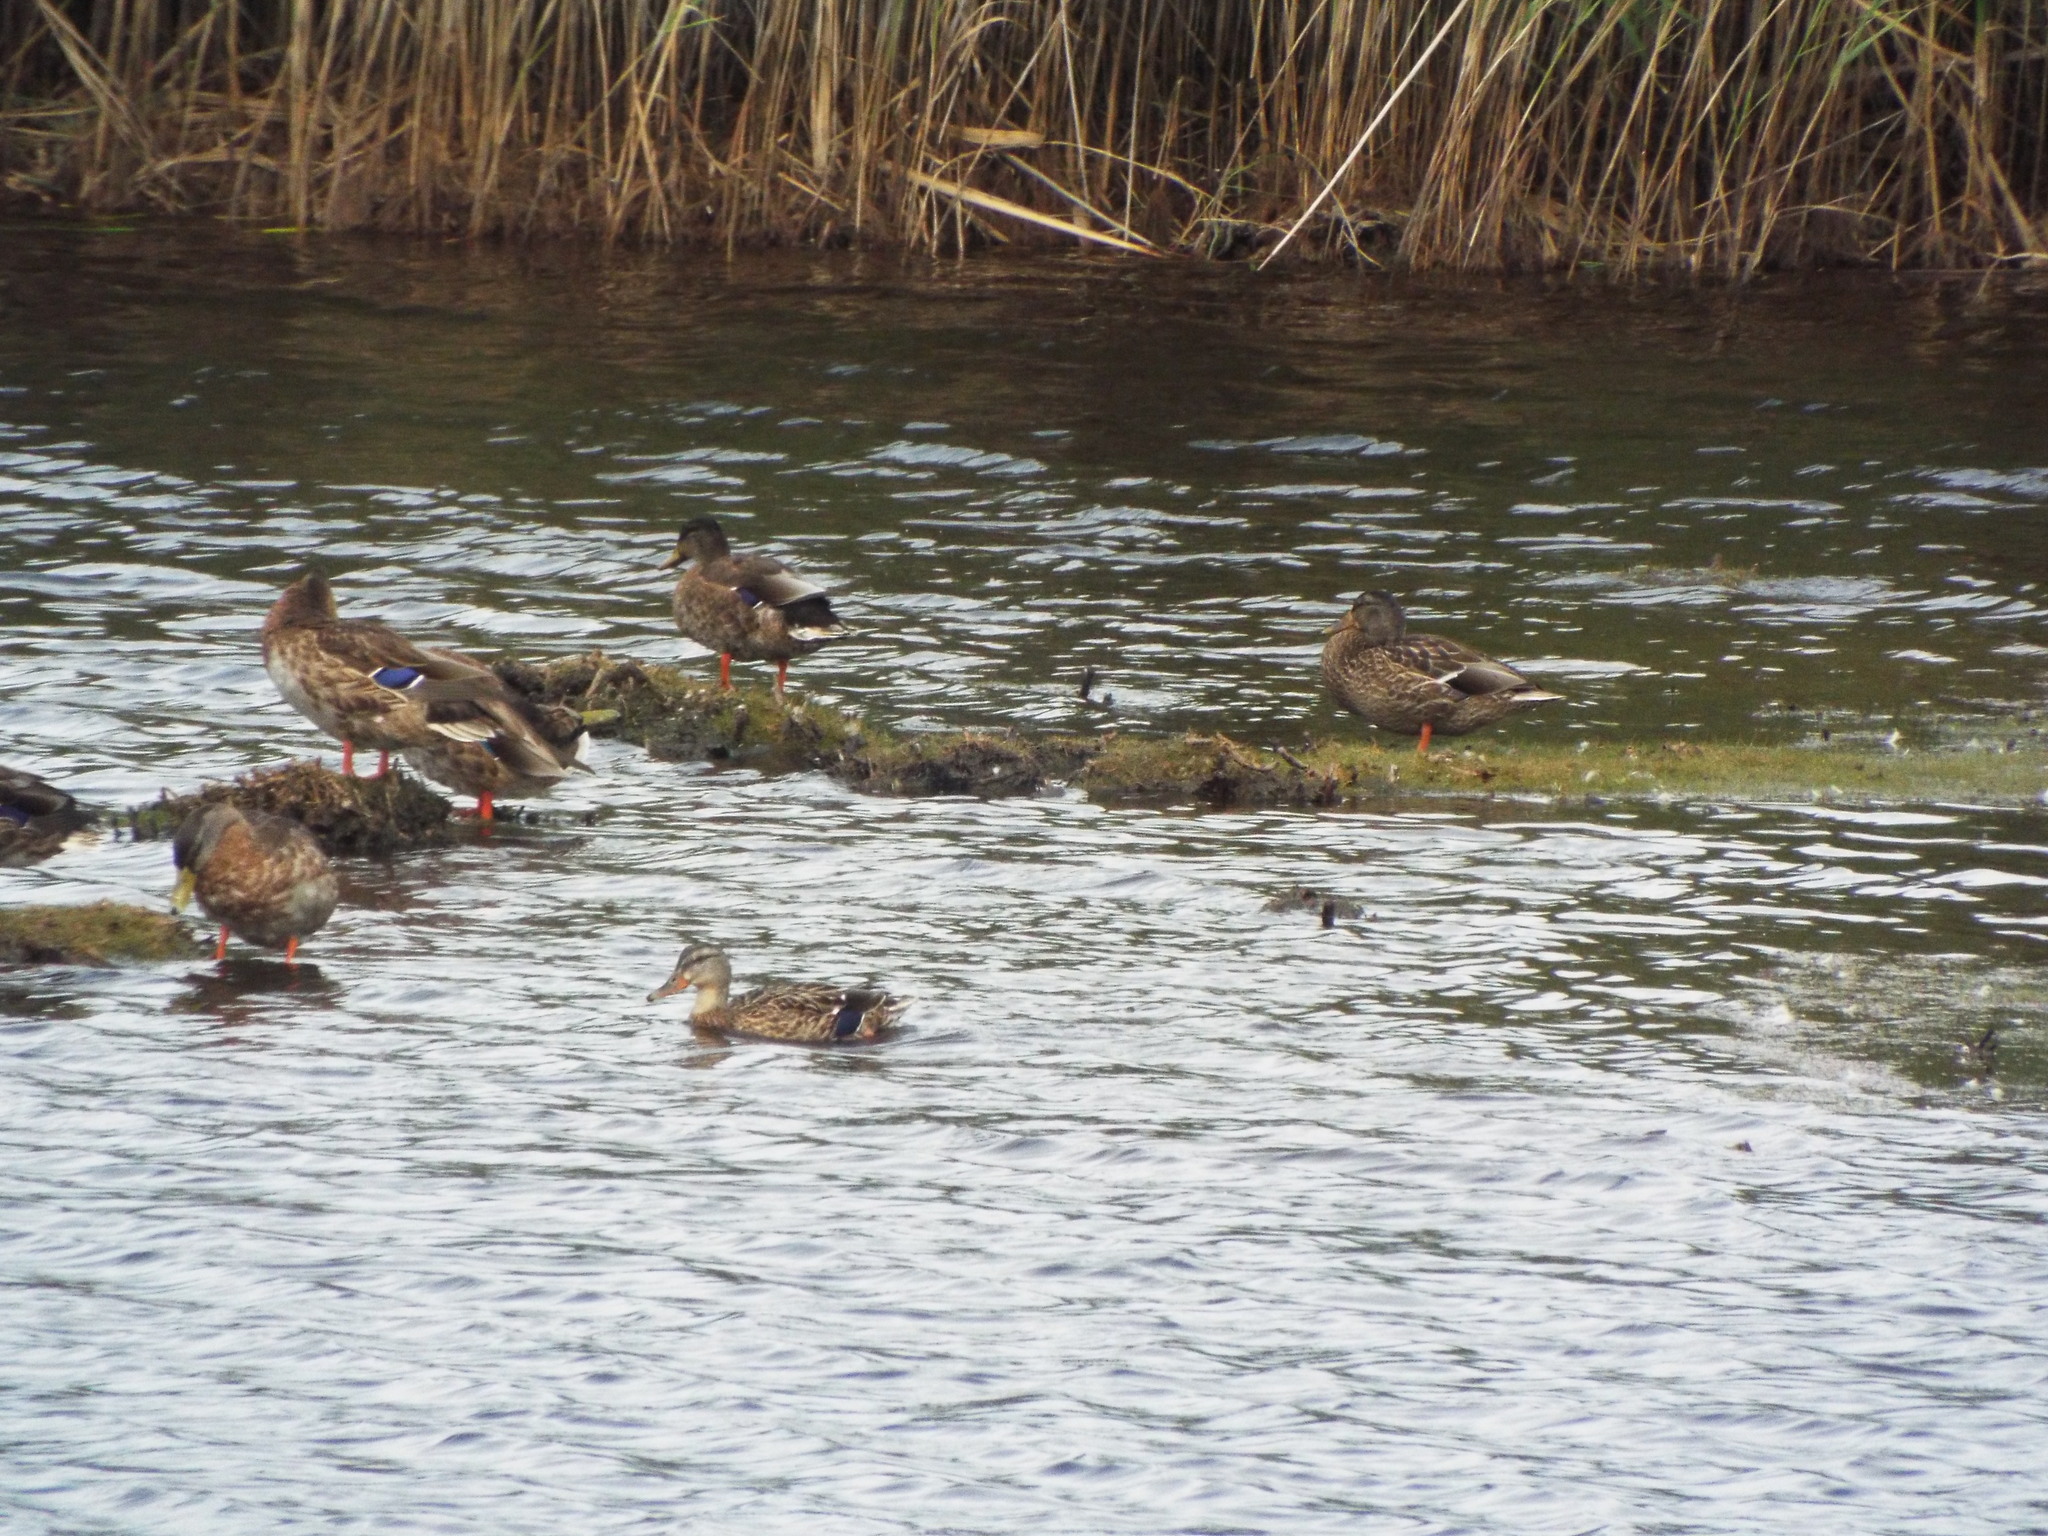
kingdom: Animalia
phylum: Chordata
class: Aves
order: Anseriformes
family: Anatidae
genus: Anas
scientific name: Anas platyrhynchos
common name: Mallard
